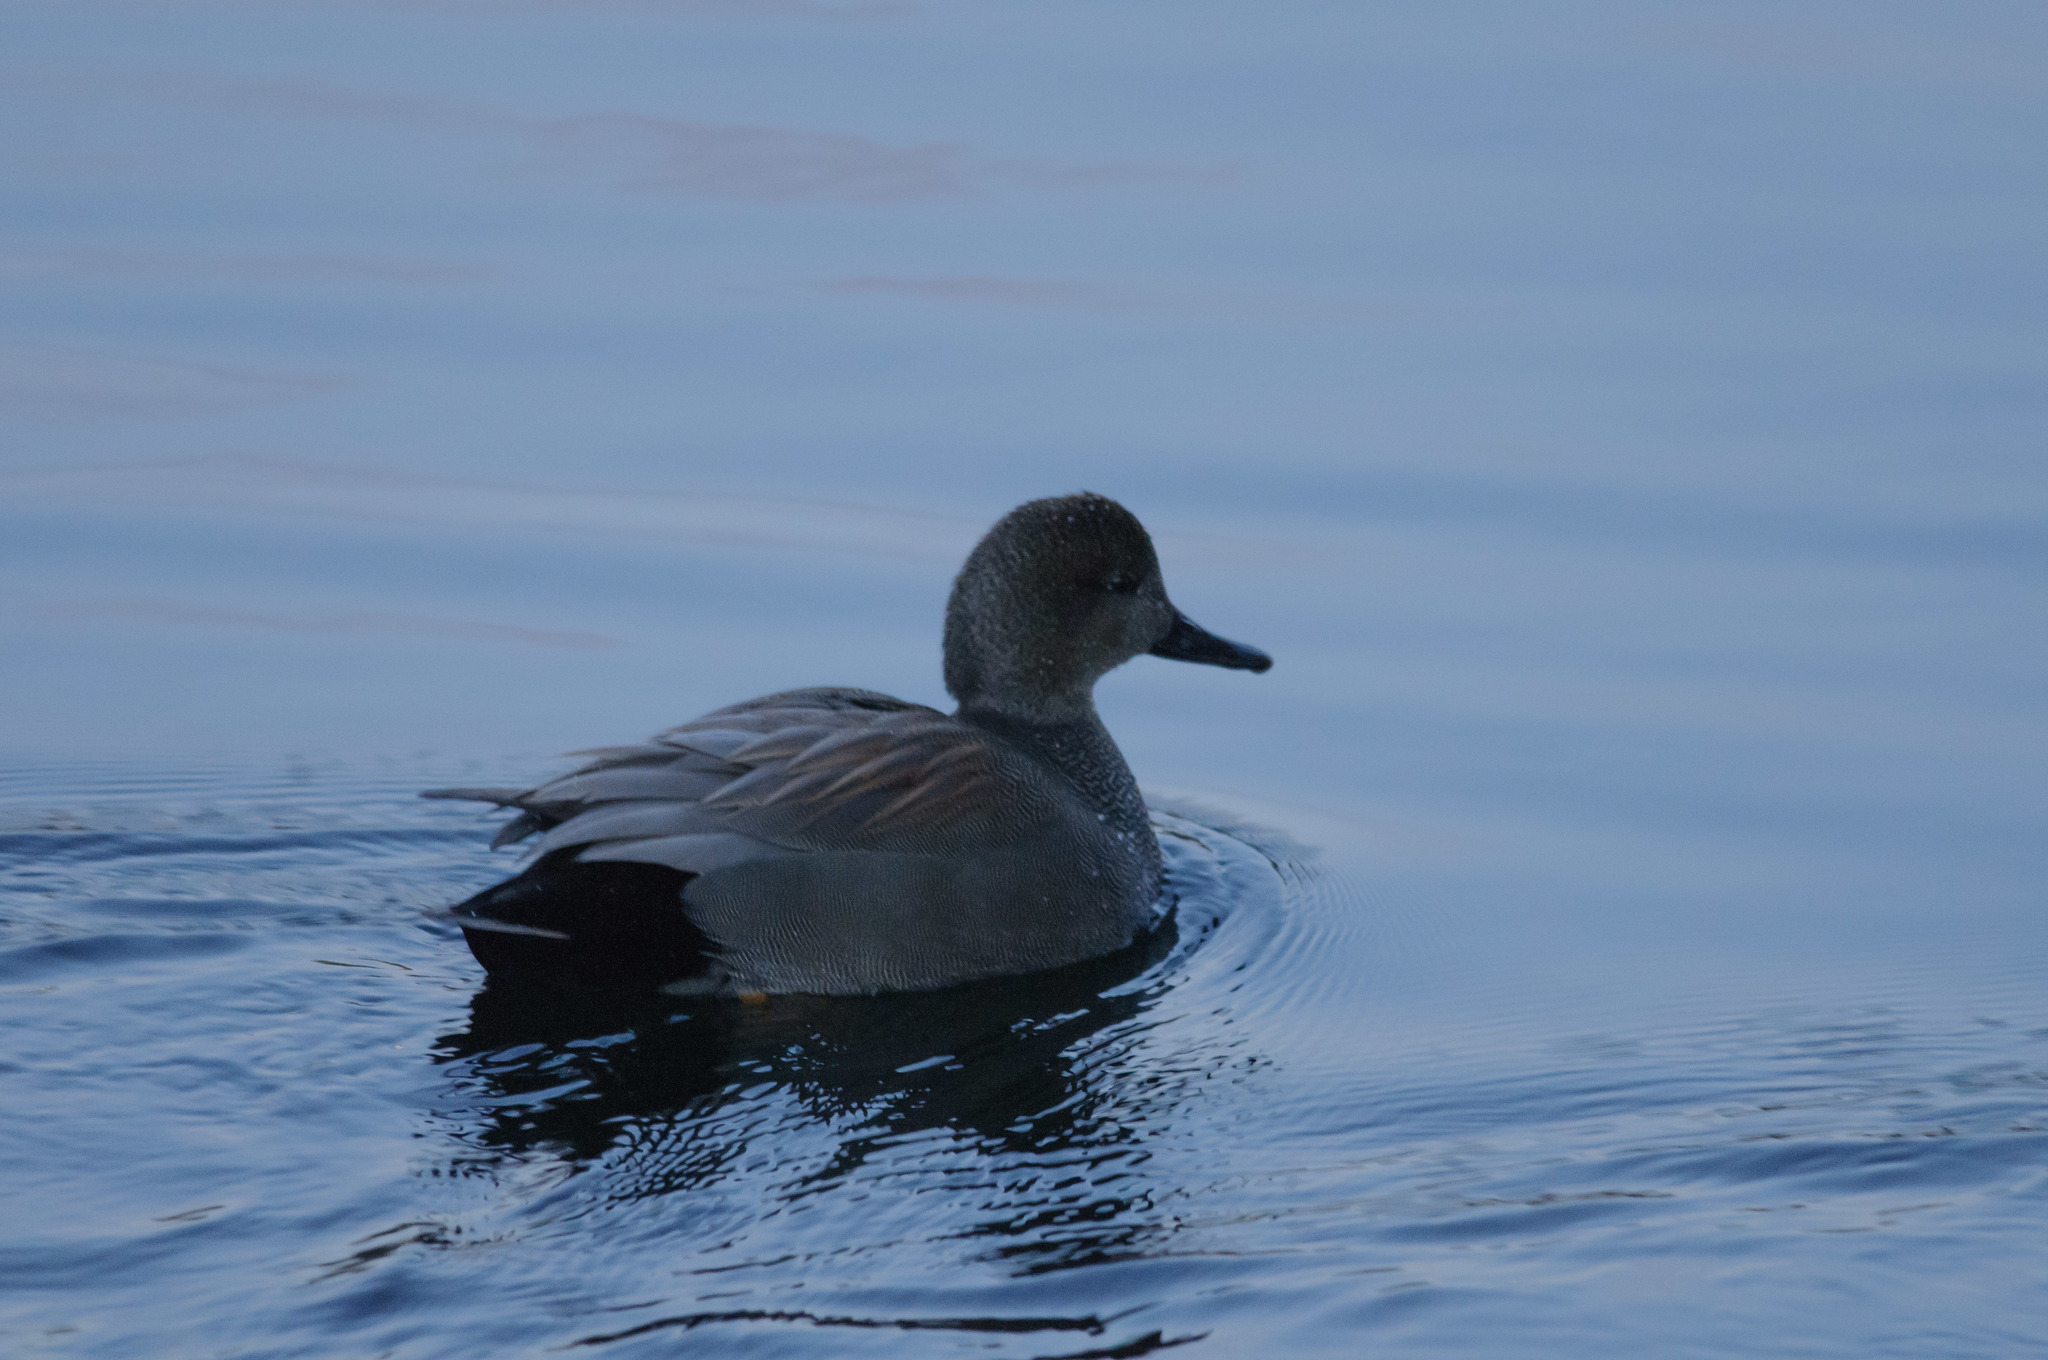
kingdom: Animalia
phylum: Chordata
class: Aves
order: Anseriformes
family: Anatidae
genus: Mareca
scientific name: Mareca strepera
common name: Gadwall
